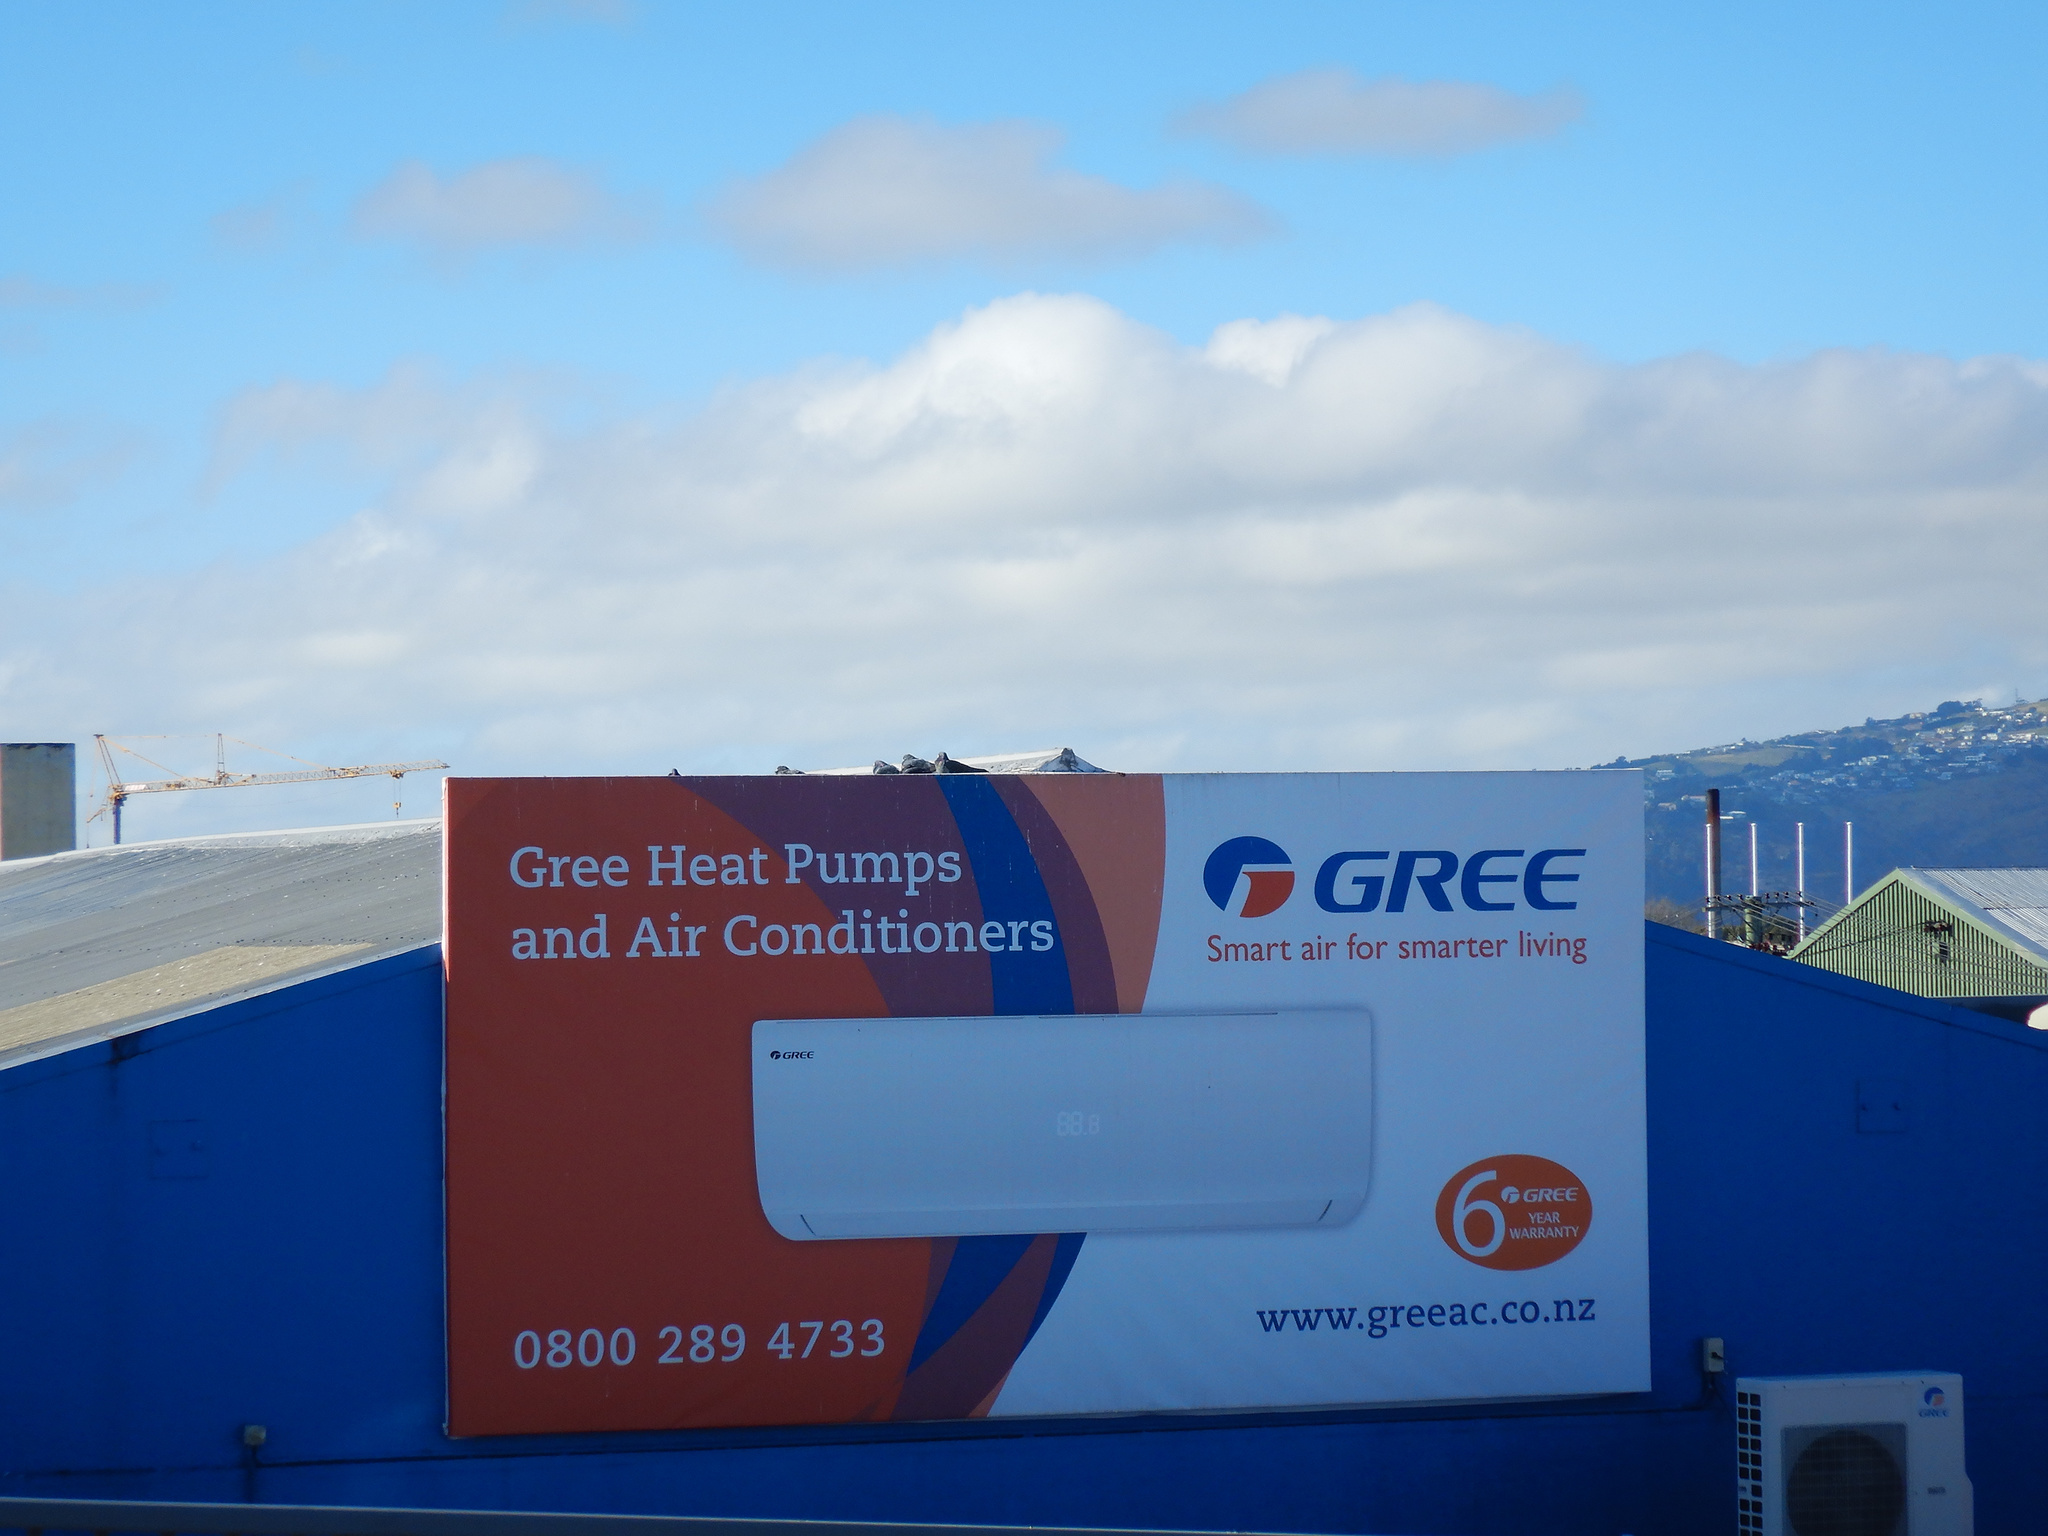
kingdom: Animalia
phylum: Chordata
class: Aves
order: Columbiformes
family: Columbidae
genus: Columba
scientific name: Columba livia
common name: Rock pigeon
